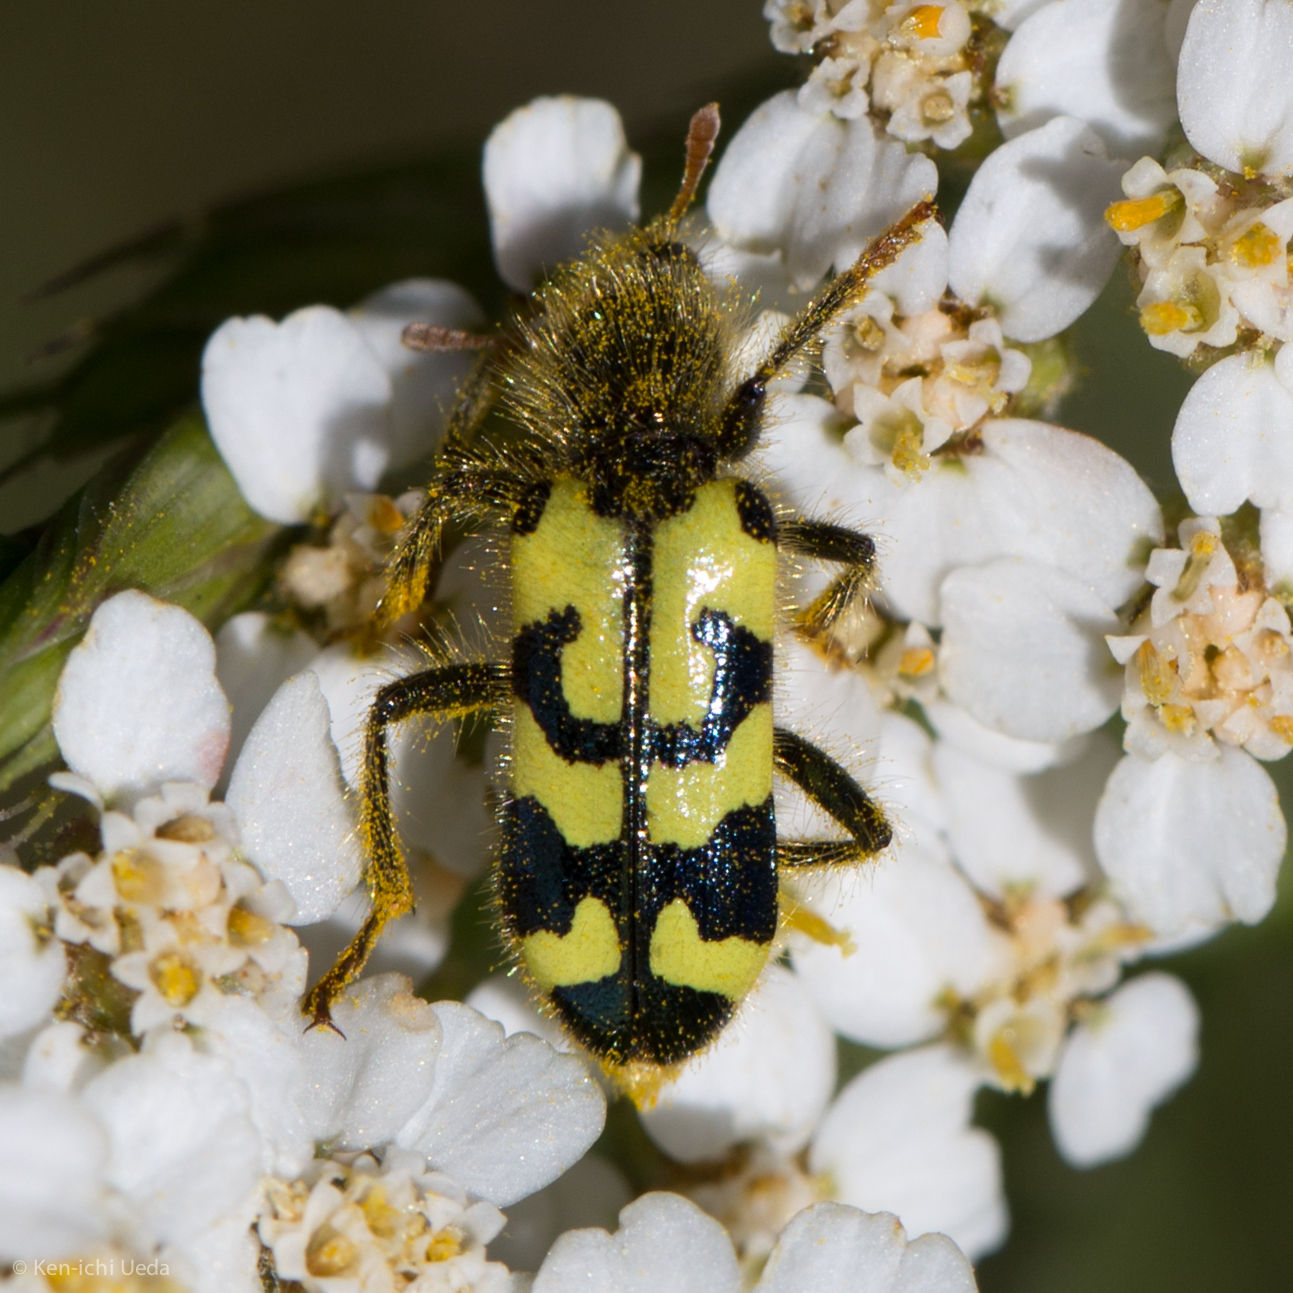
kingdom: Animalia
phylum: Arthropoda
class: Insecta
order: Coleoptera
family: Cleridae
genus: Trichodes
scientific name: Trichodes ornatus
